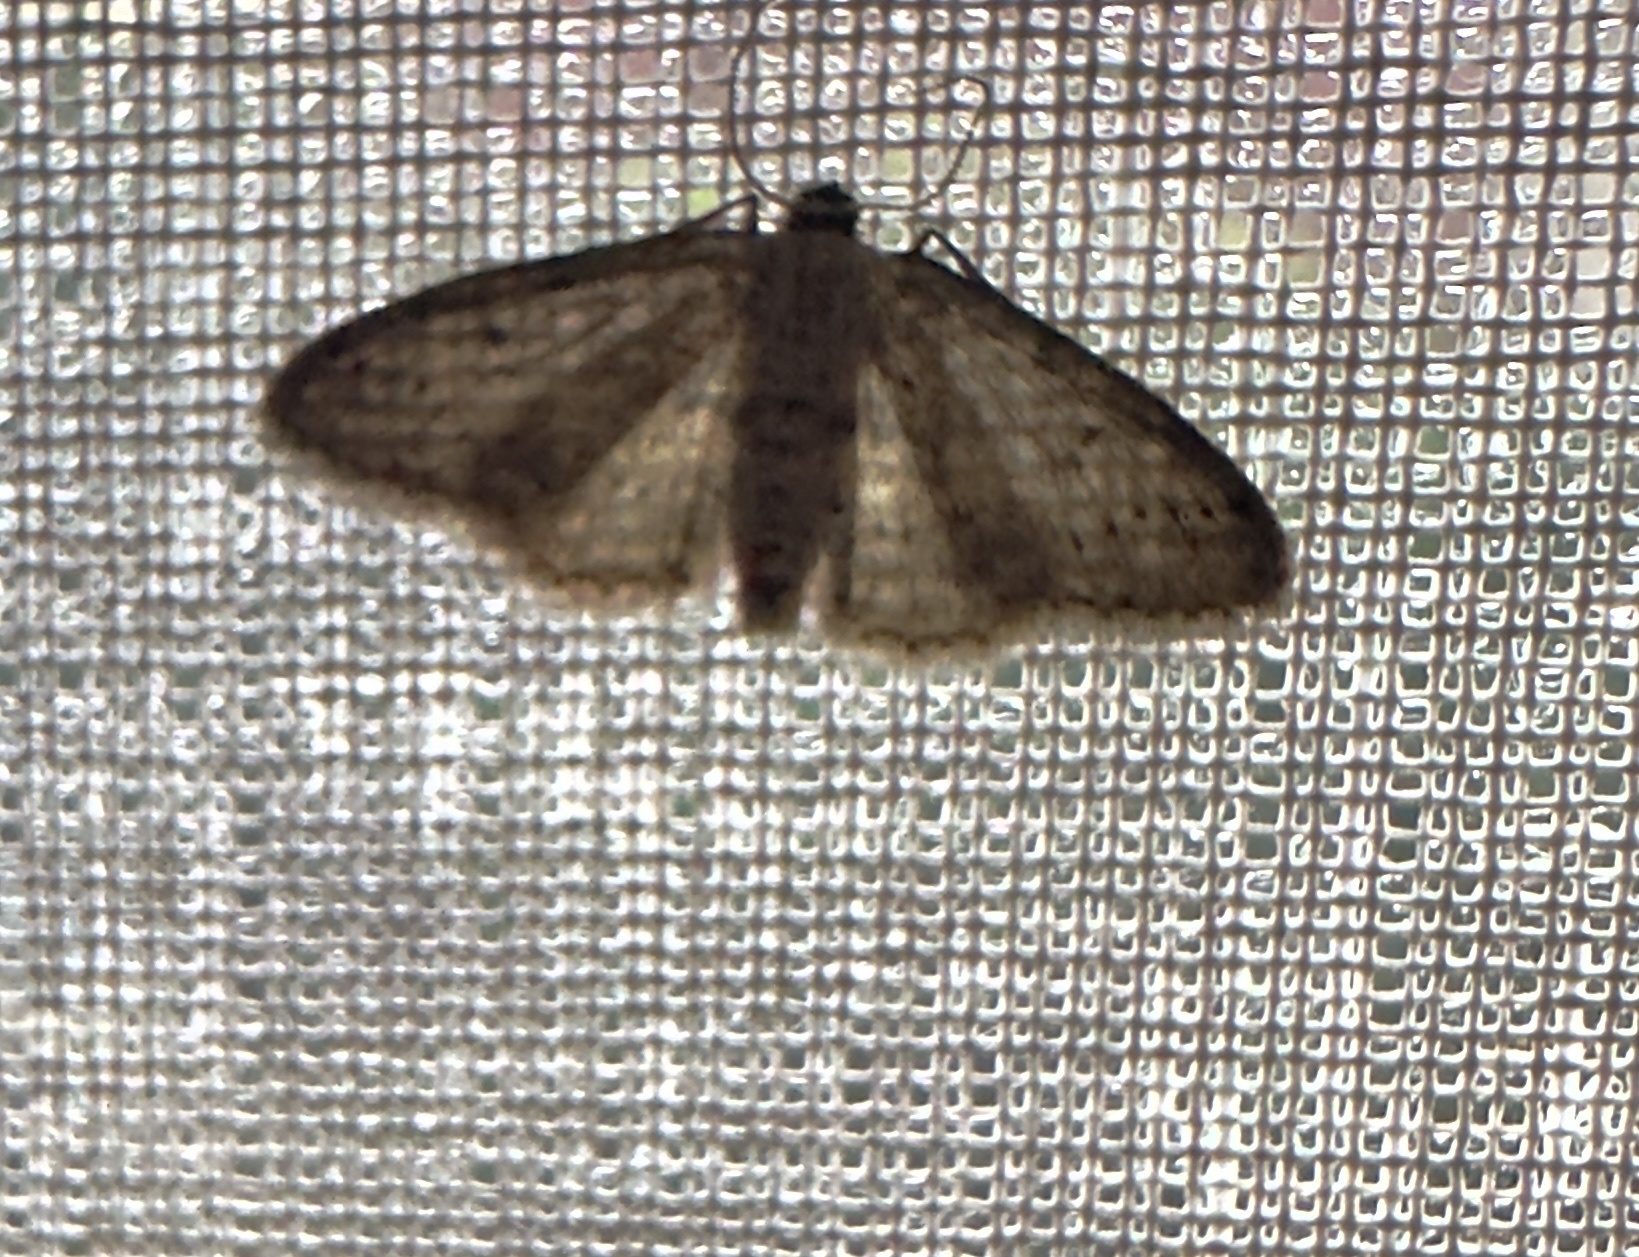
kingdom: Animalia
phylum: Arthropoda
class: Insecta
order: Lepidoptera
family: Geometridae
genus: Idaea
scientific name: Idaea seriata
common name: Small dusty wave
